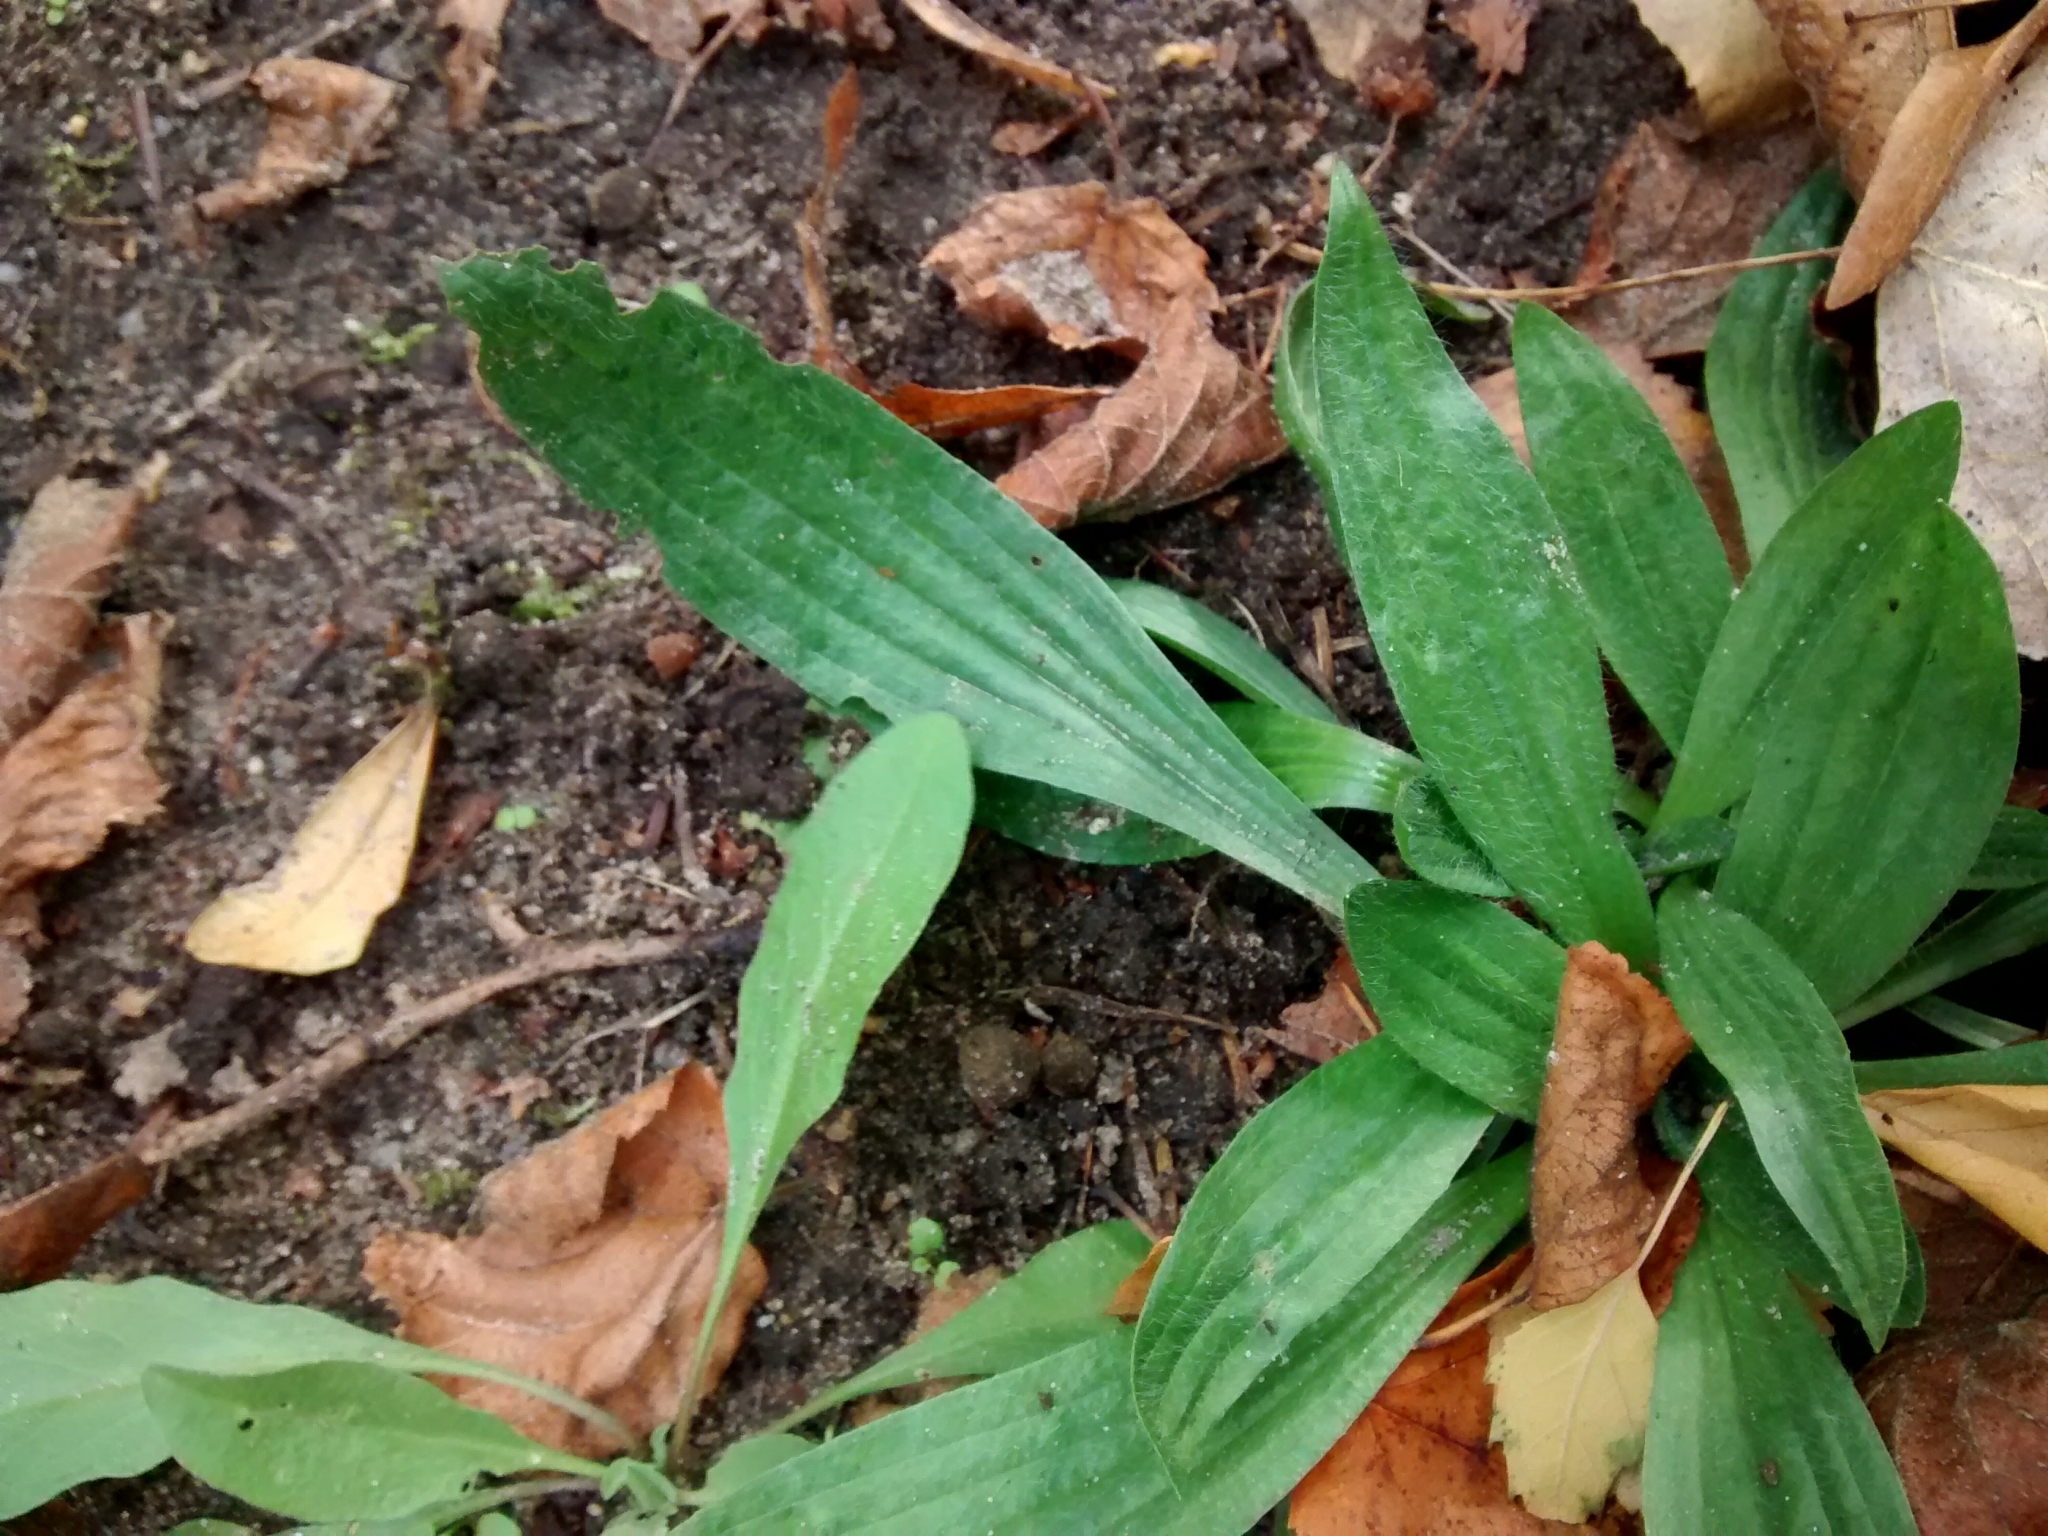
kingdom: Plantae
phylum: Tracheophyta
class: Magnoliopsida
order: Lamiales
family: Plantaginaceae
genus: Plantago
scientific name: Plantago lanceolata
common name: Ribwort plantain
